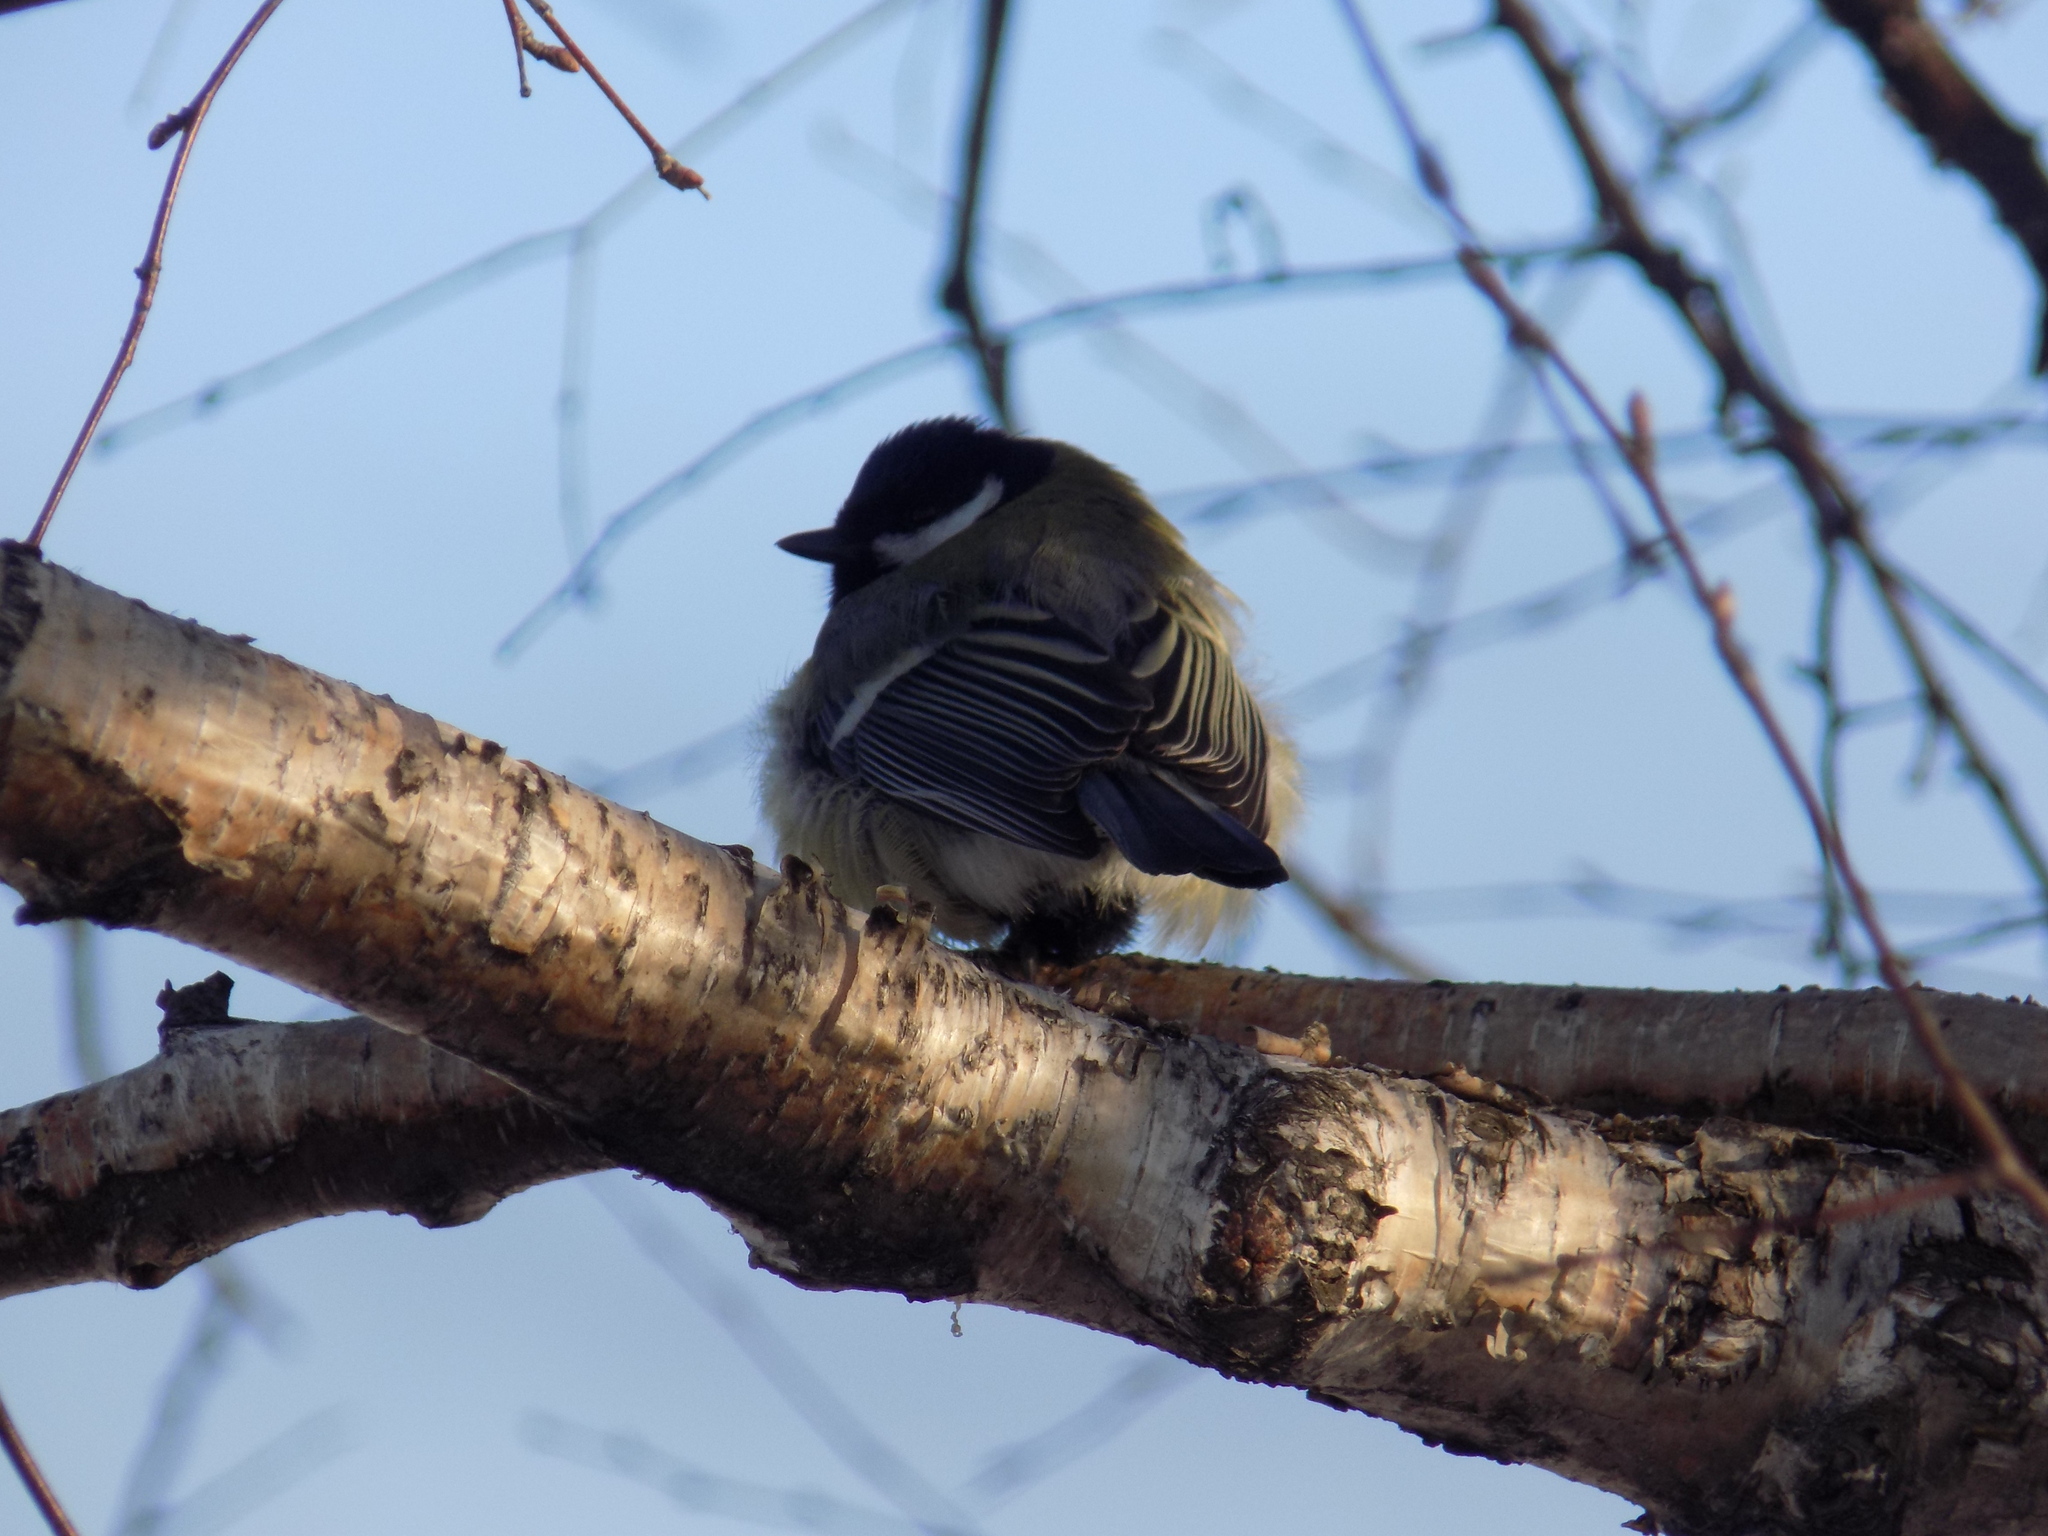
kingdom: Animalia
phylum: Chordata
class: Aves
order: Passeriformes
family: Paridae
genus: Parus
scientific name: Parus major
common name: Great tit
